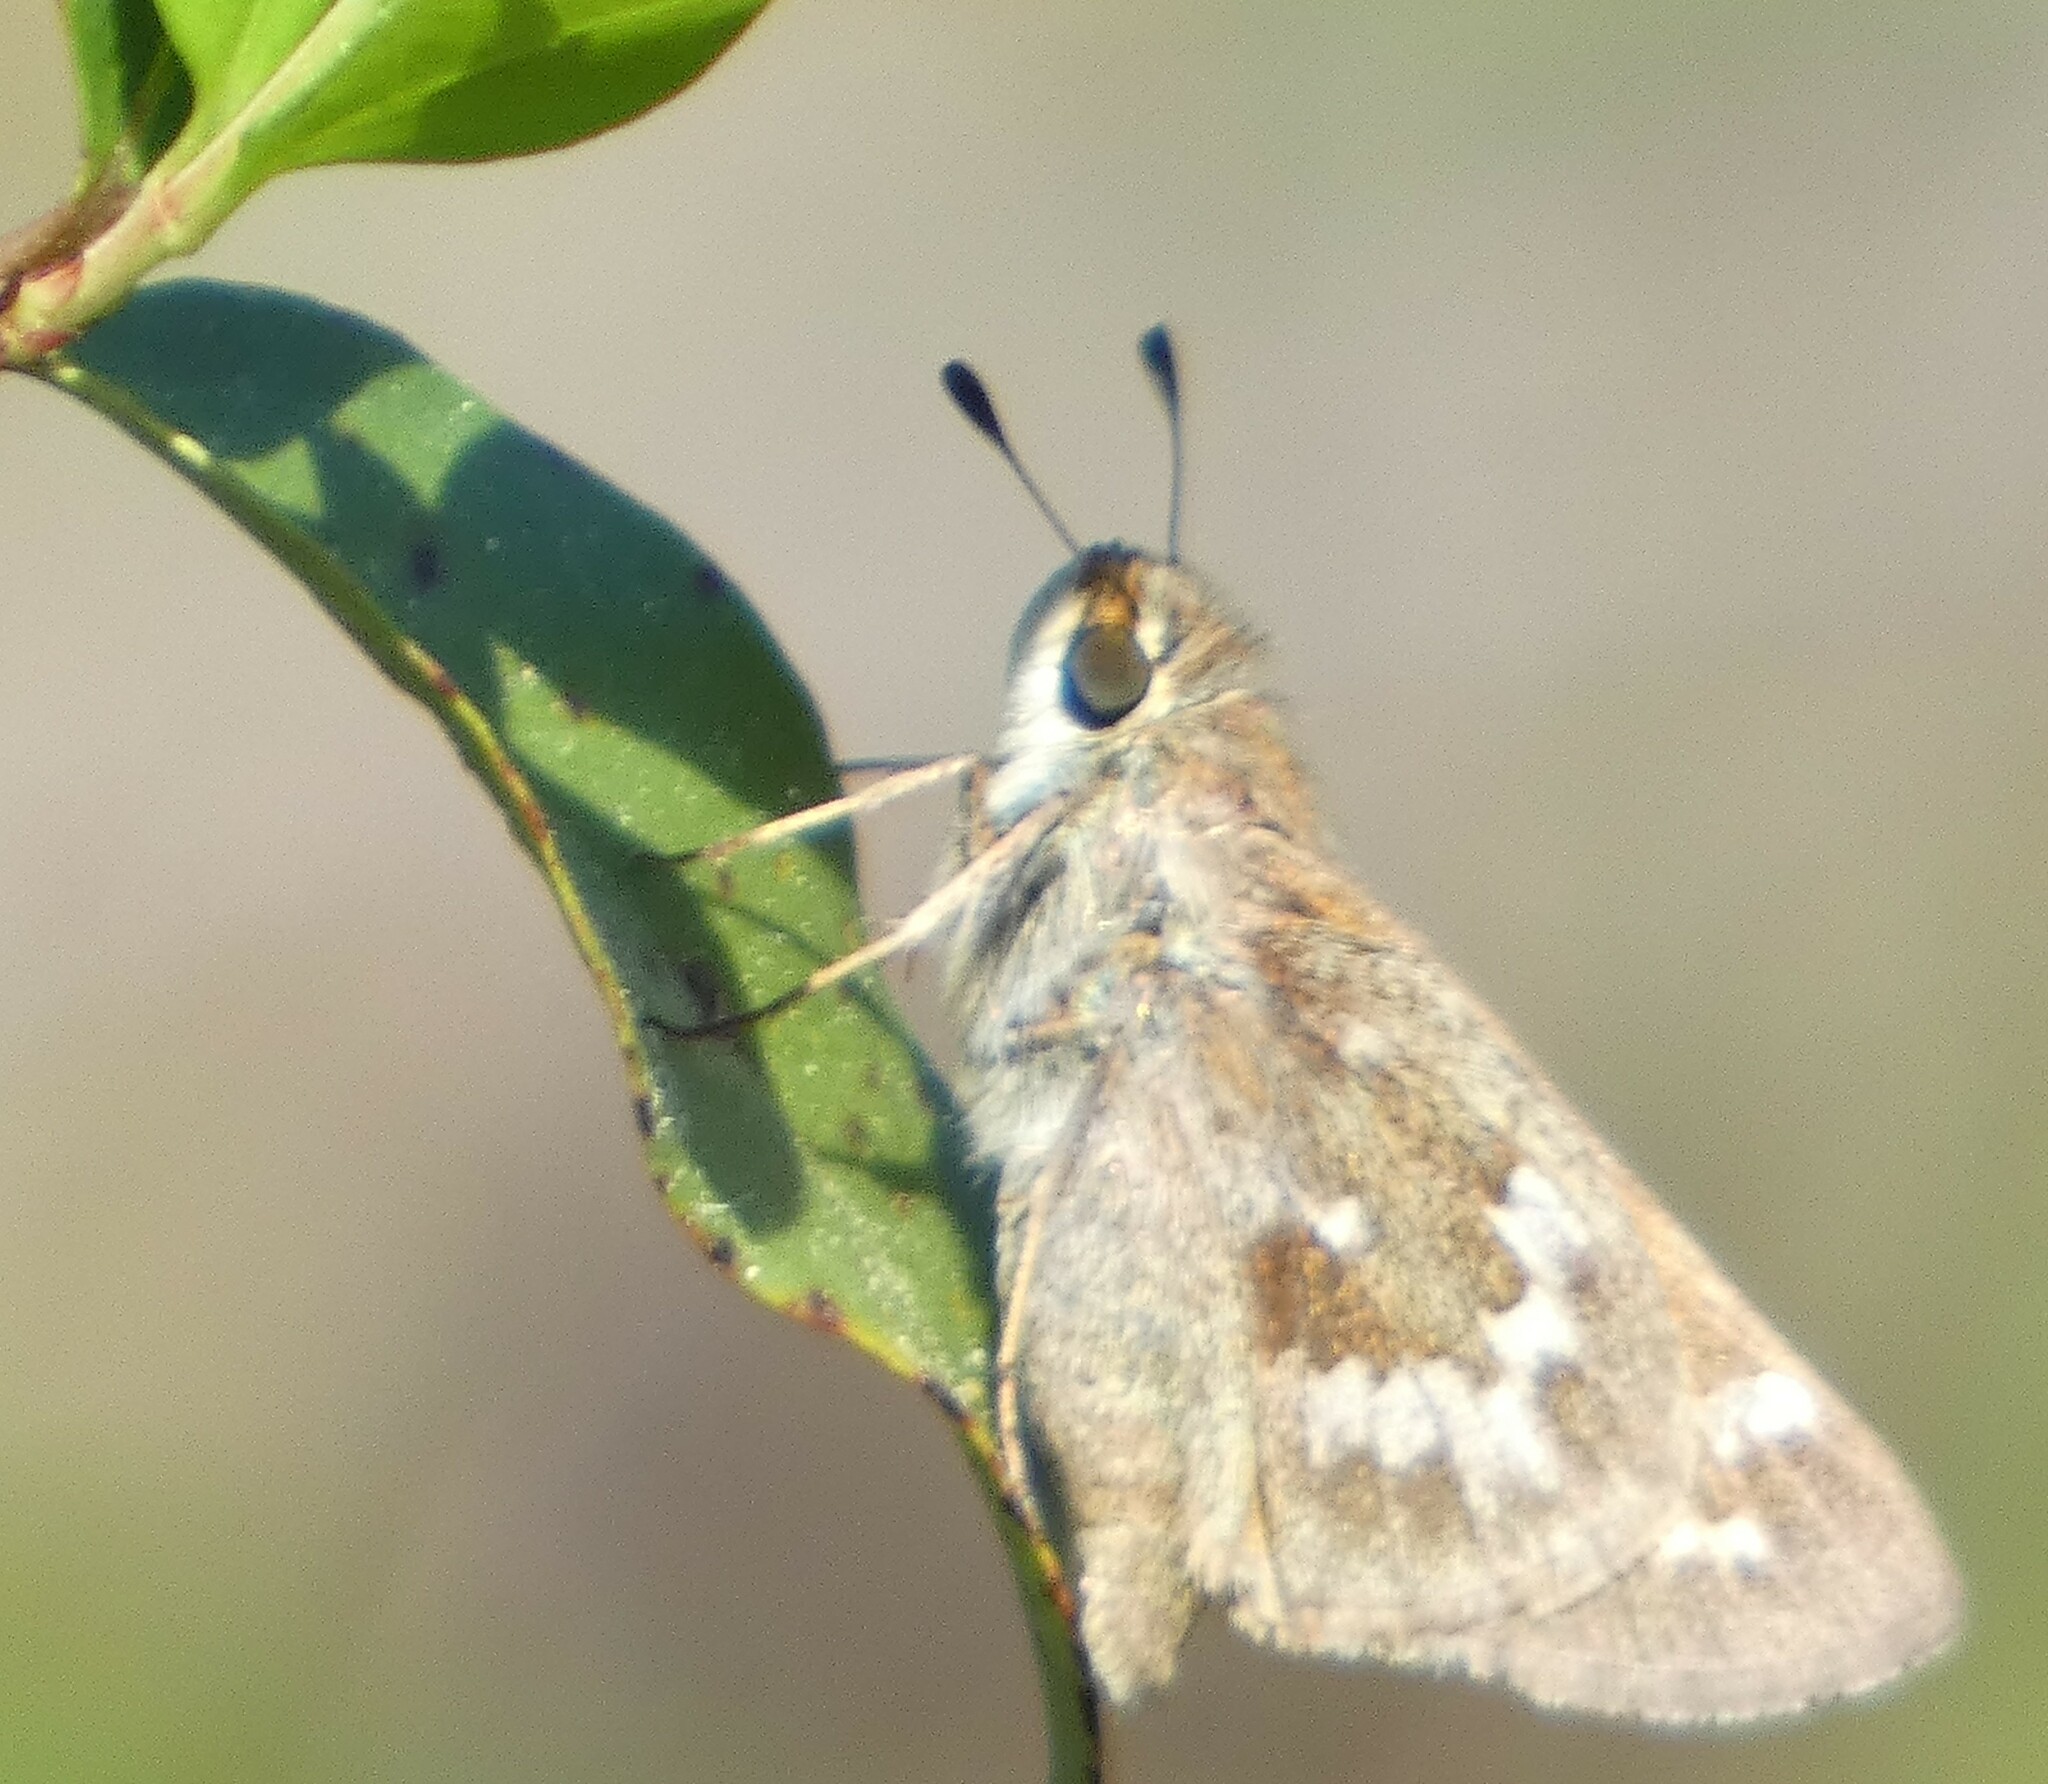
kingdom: Animalia
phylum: Arthropoda
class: Insecta
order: Lepidoptera
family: Hesperiidae
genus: Atalopedes
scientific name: Atalopedes
